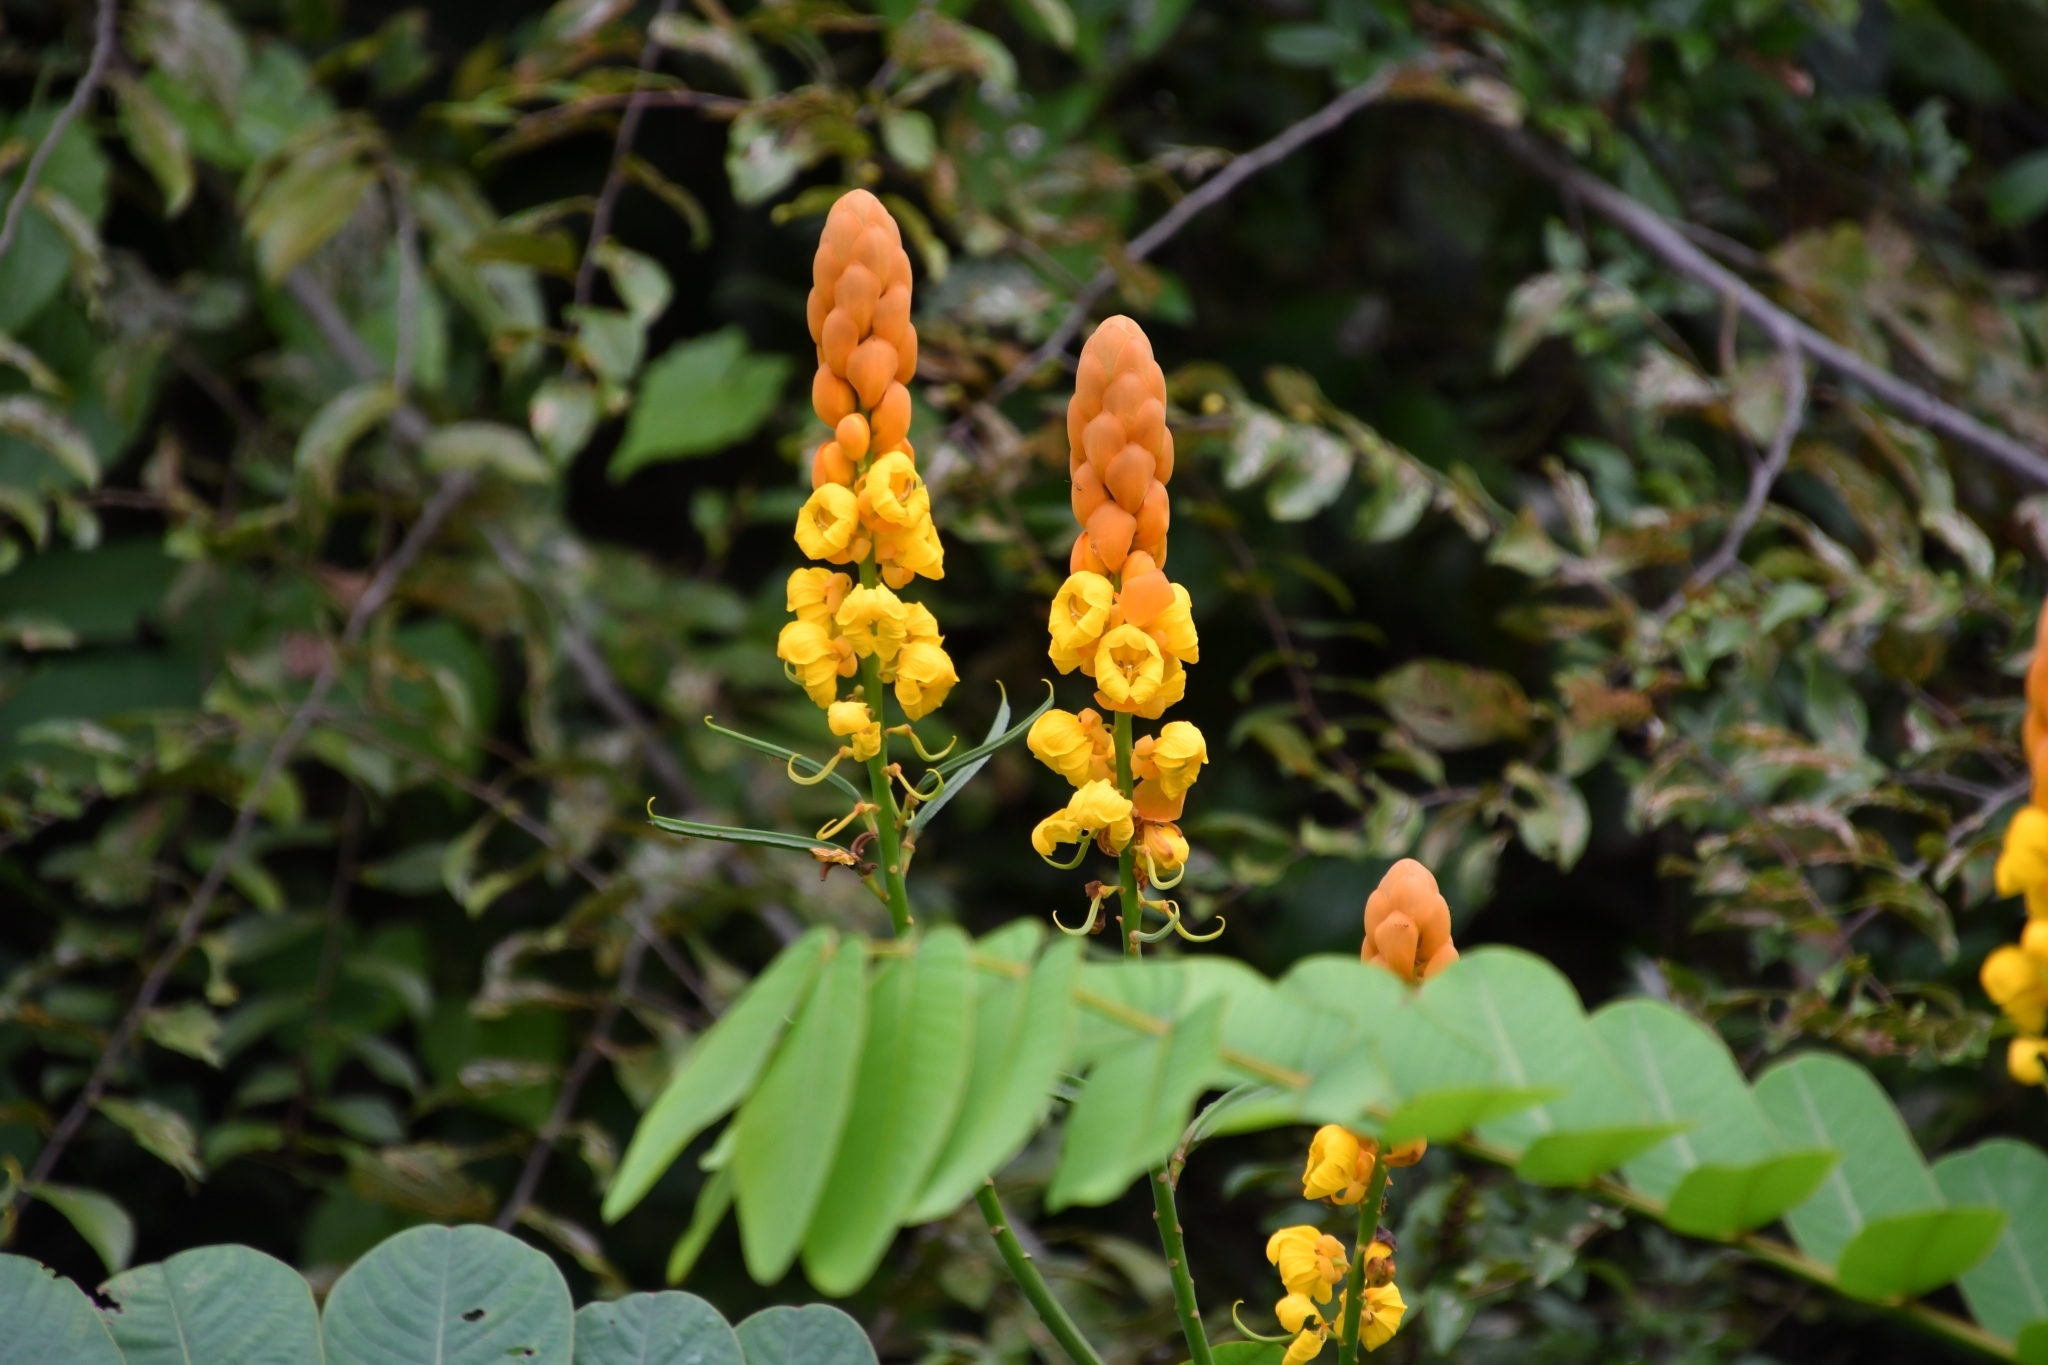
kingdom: Plantae
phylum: Tracheophyta
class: Magnoliopsida
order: Fabales
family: Fabaceae
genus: Senna
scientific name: Senna alata
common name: Emperor's candlesticks
